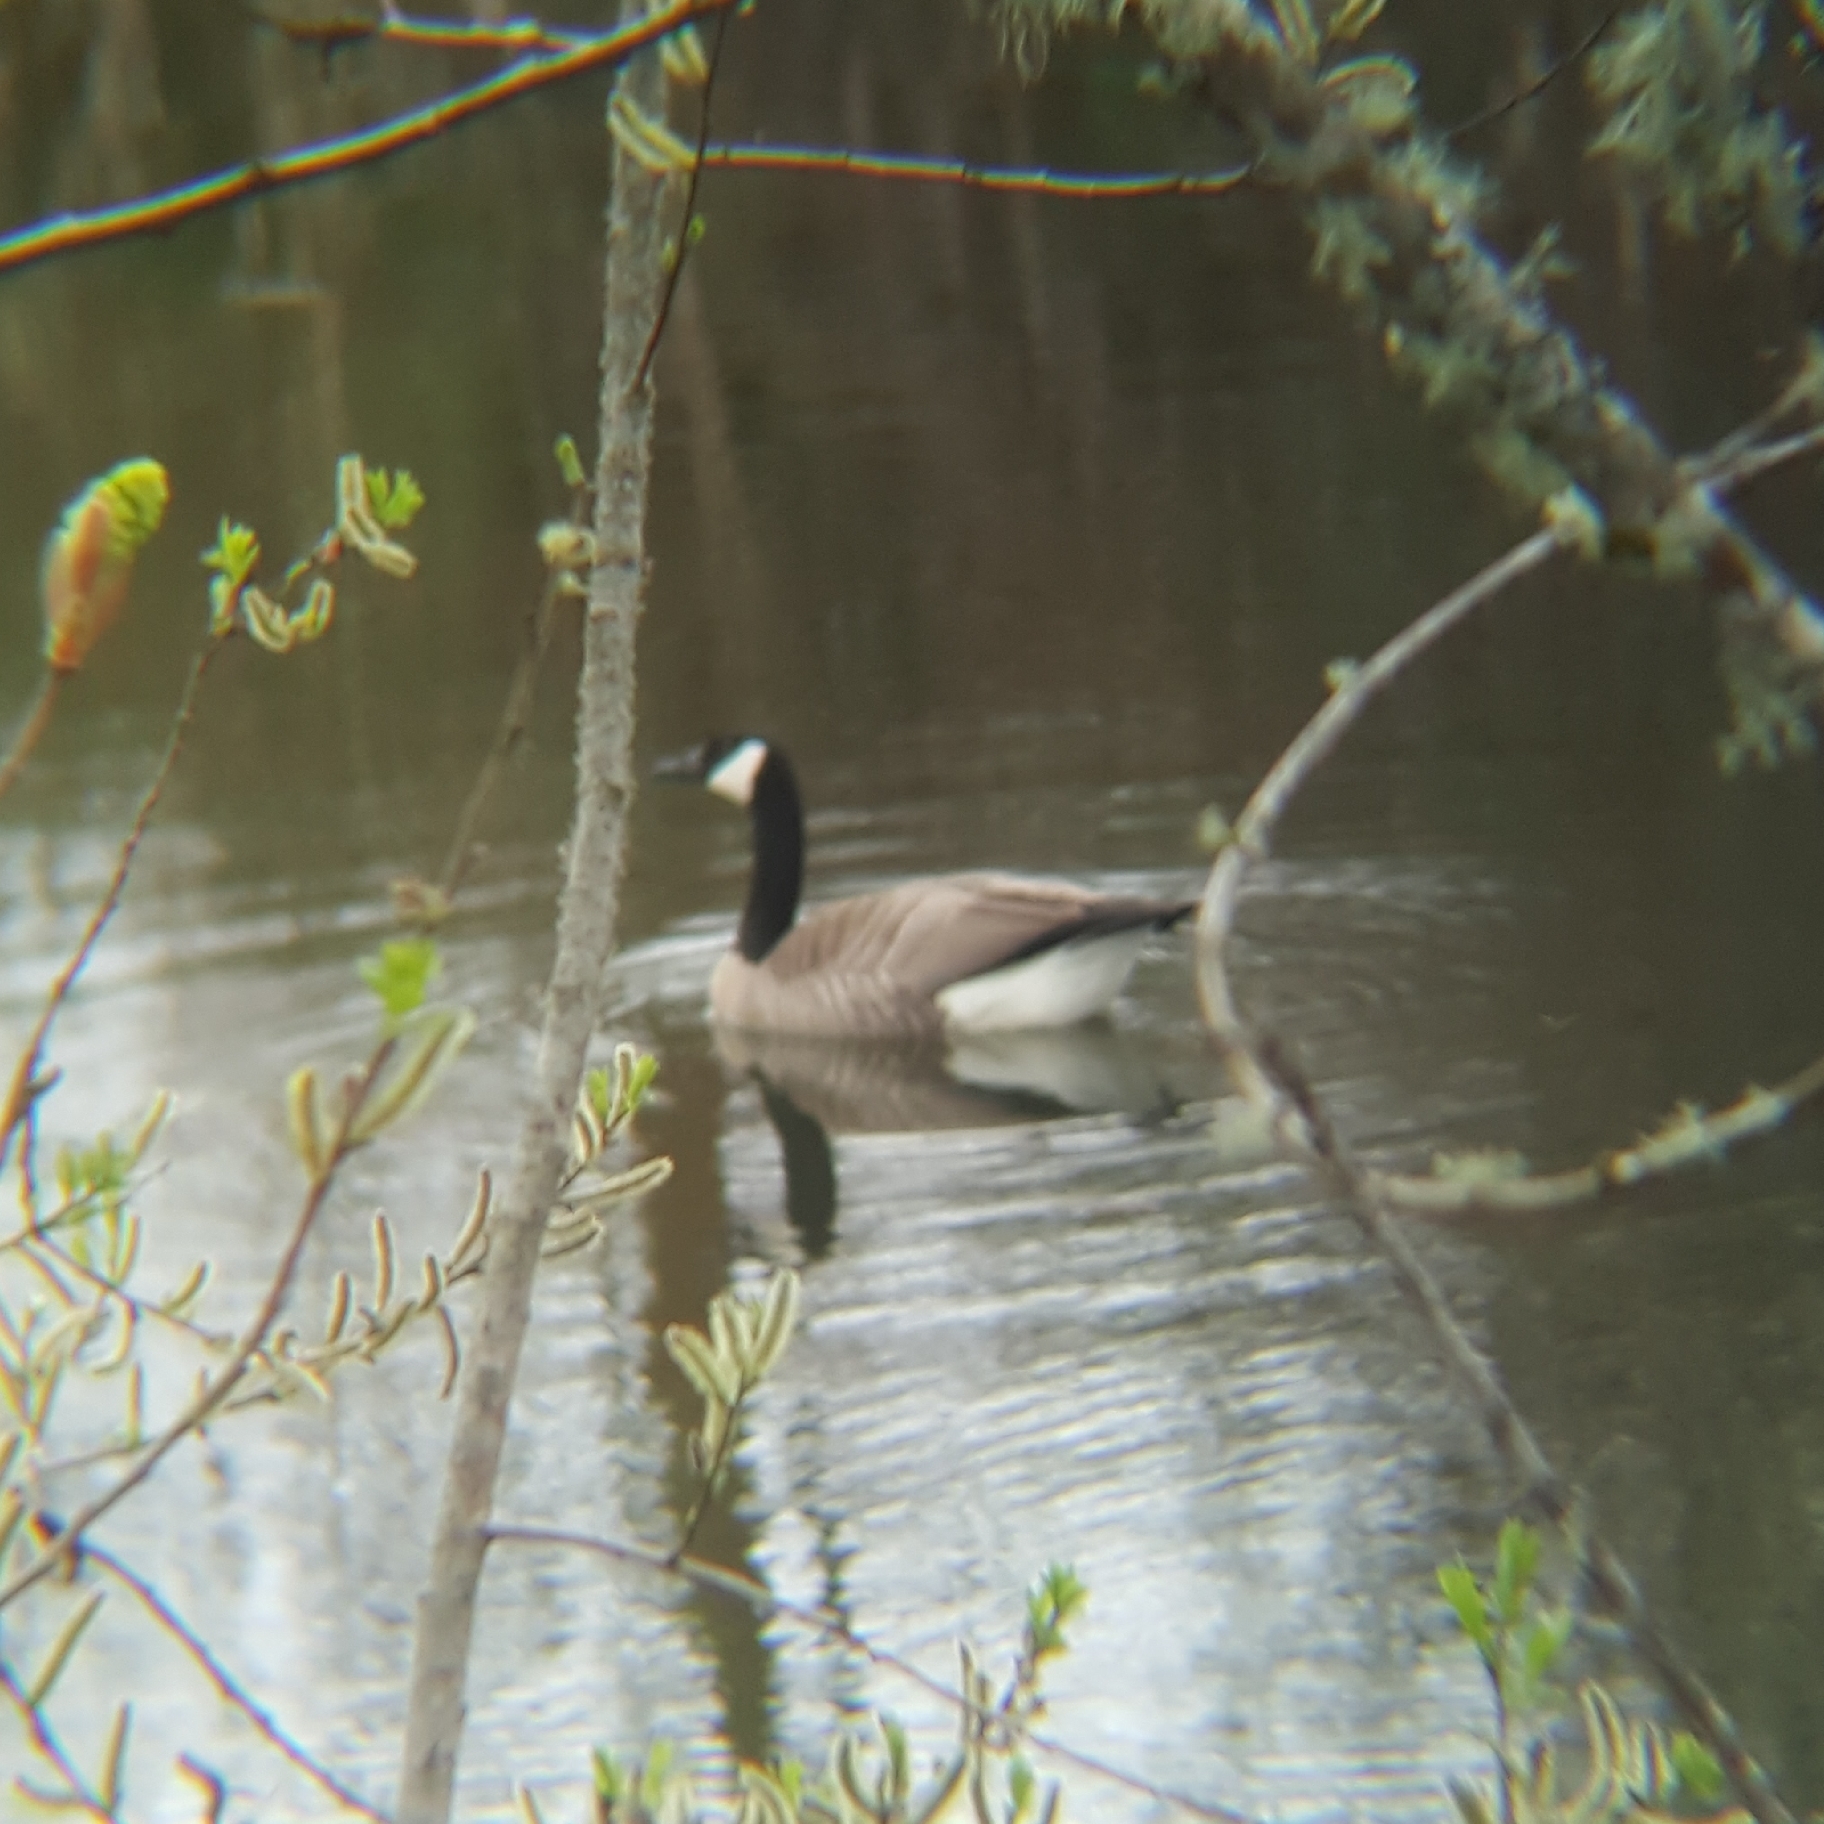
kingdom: Animalia
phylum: Chordata
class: Aves
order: Anseriformes
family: Anatidae
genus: Branta
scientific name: Branta canadensis
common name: Canada goose
